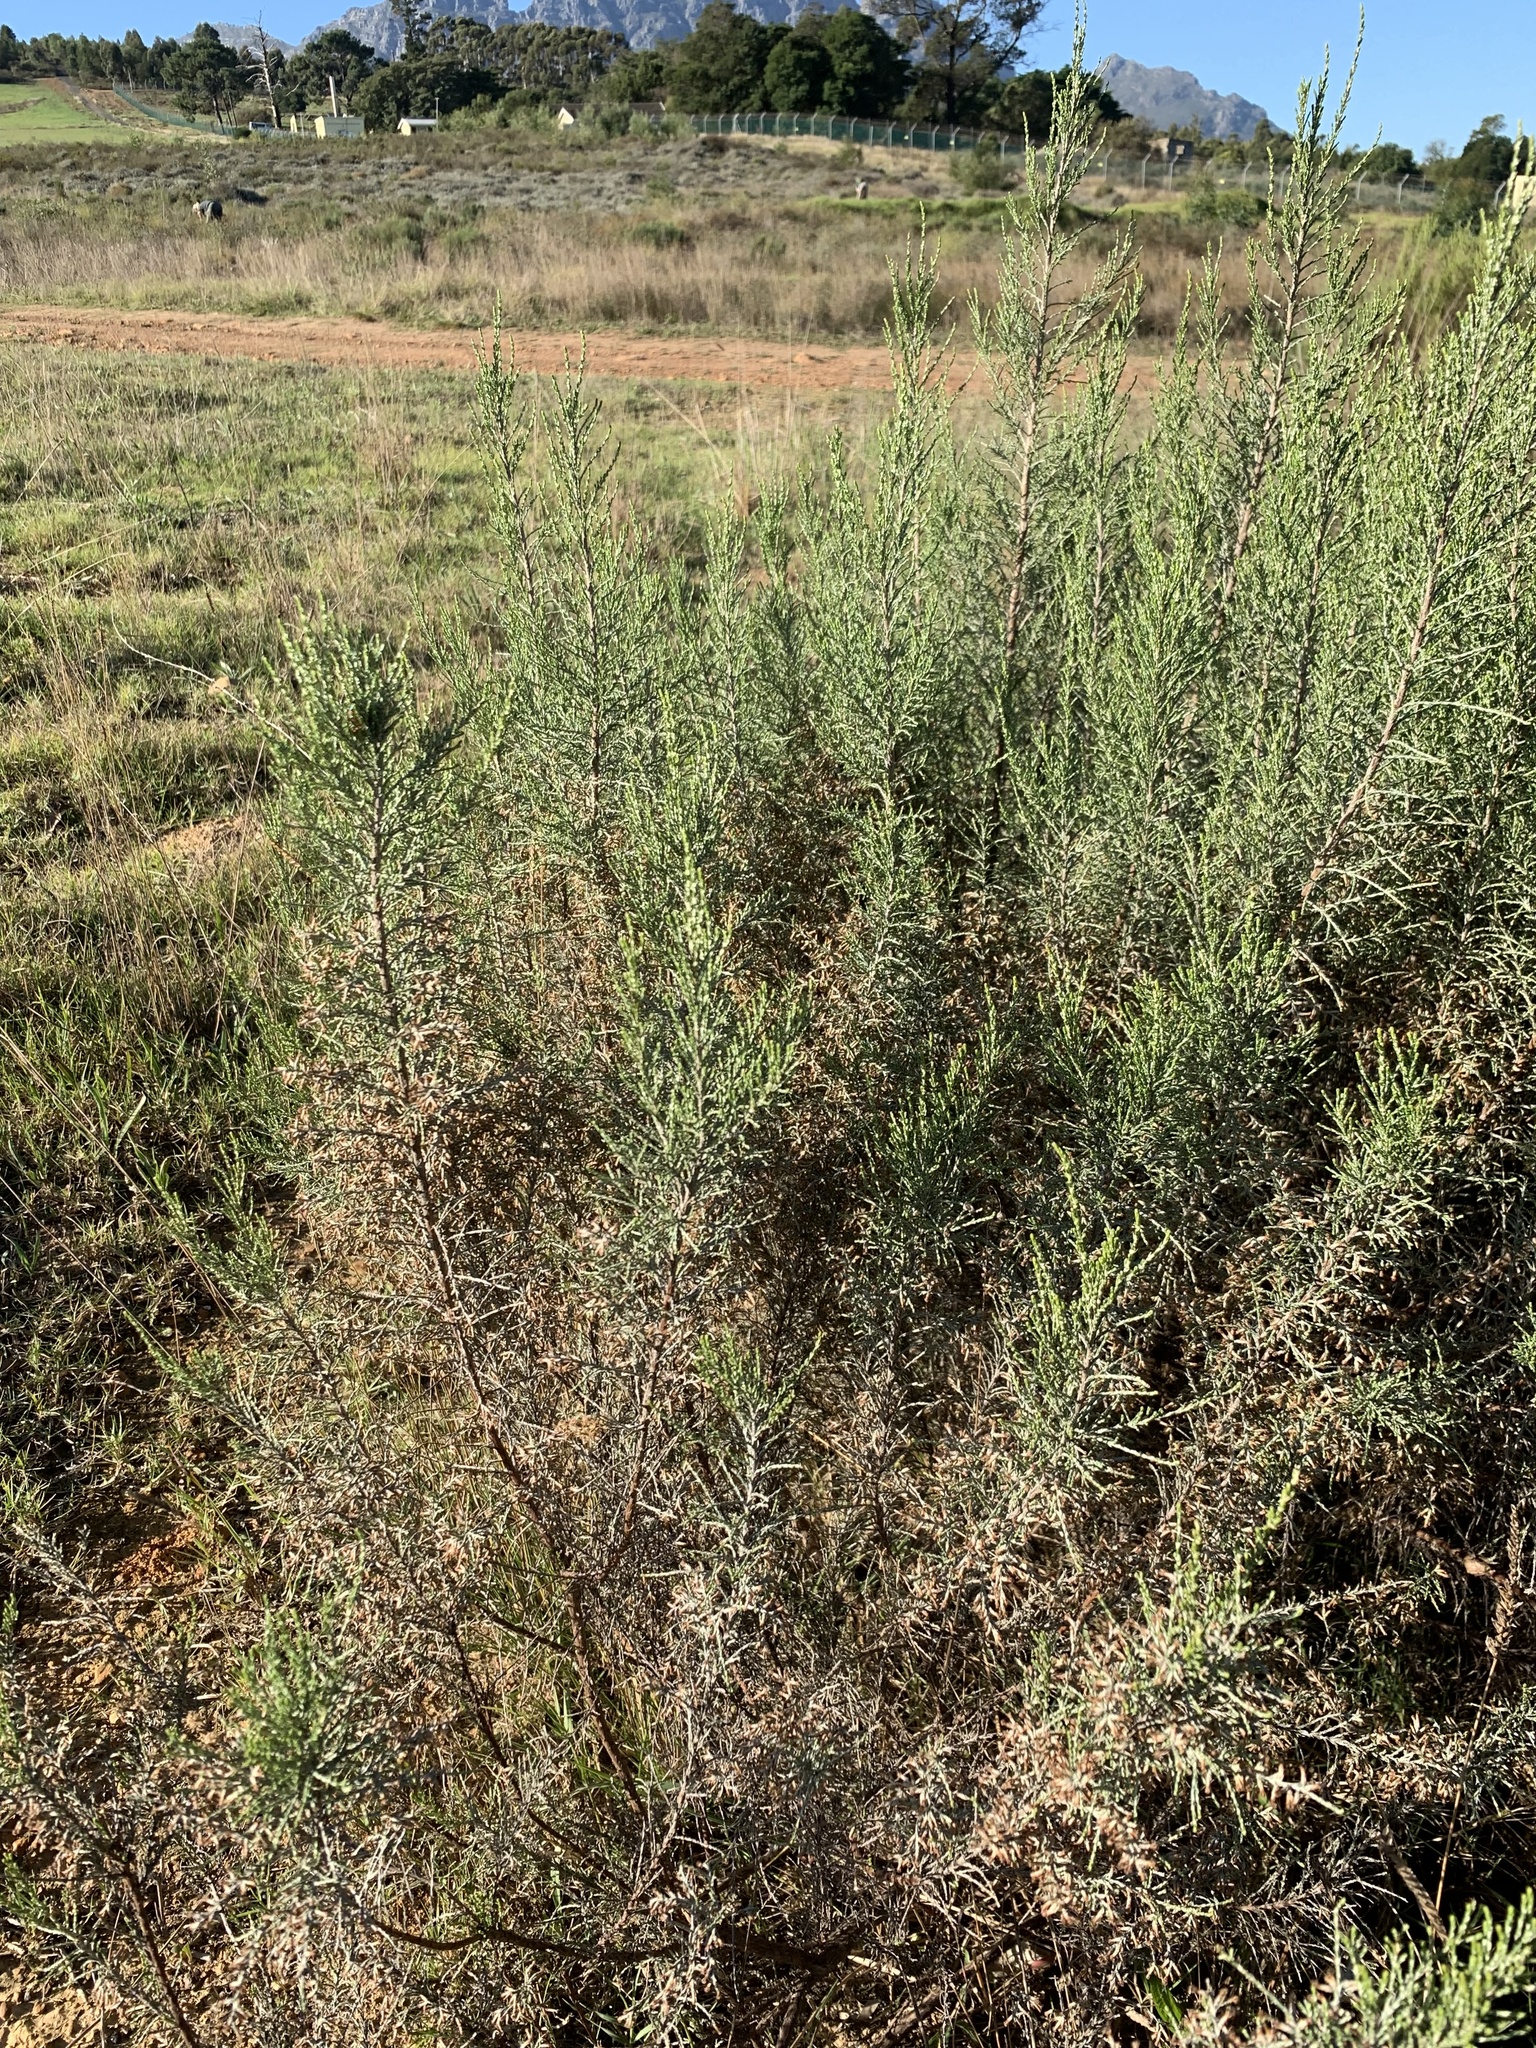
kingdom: Plantae
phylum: Tracheophyta
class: Magnoliopsida
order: Asterales
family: Asteraceae
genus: Dicerothamnus
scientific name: Dicerothamnus rhinocerotis
